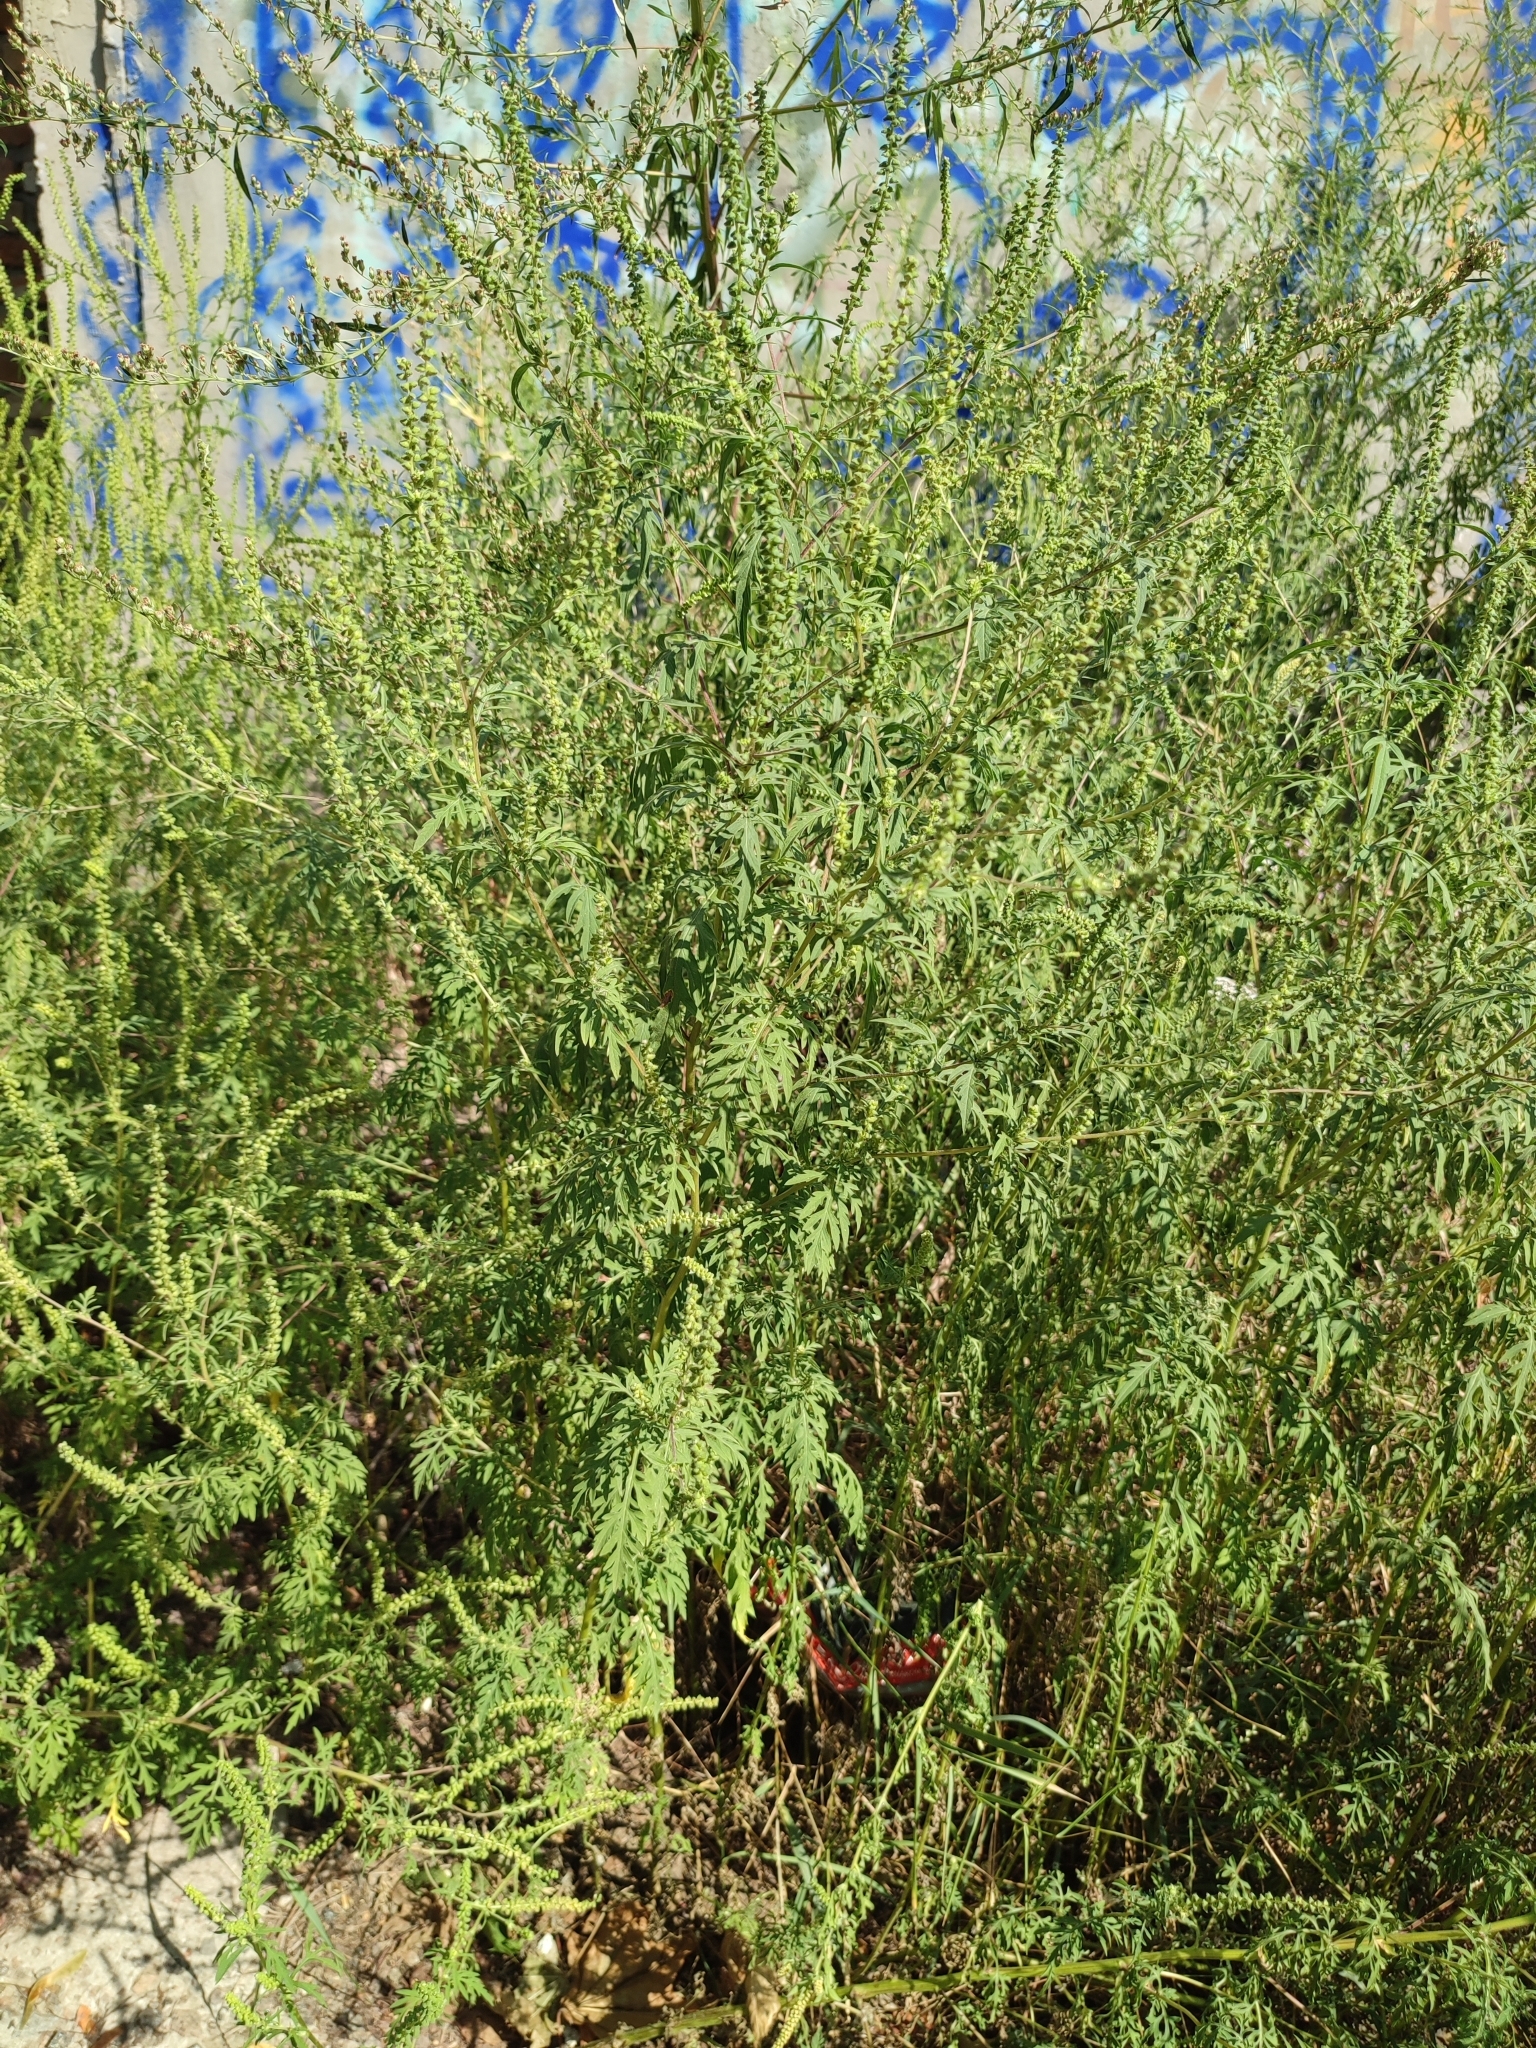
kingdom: Plantae
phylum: Tracheophyta
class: Magnoliopsida
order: Asterales
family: Asteraceae
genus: Ambrosia
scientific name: Ambrosia artemisiifolia
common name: Annual ragweed
